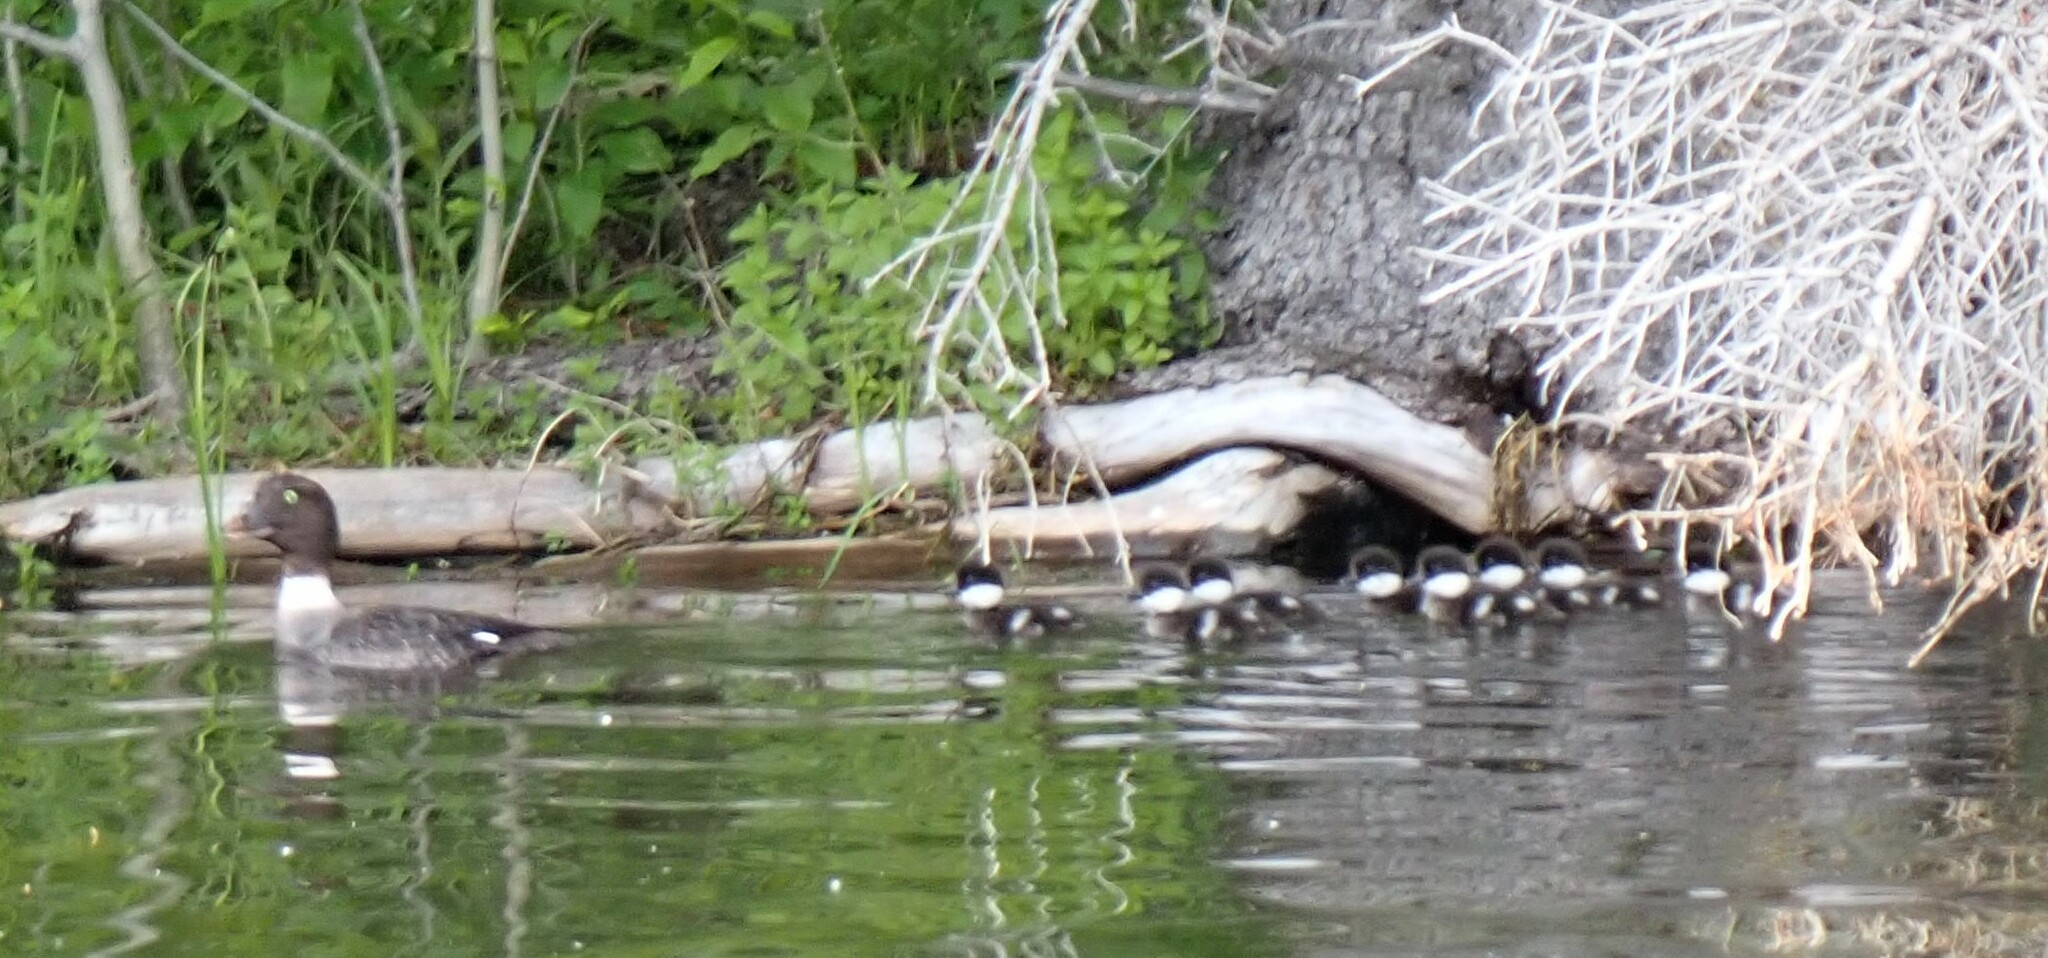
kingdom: Animalia
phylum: Chordata
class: Aves
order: Anseriformes
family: Anatidae
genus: Bucephala
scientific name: Bucephala islandica
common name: Barrow's goldeneye
